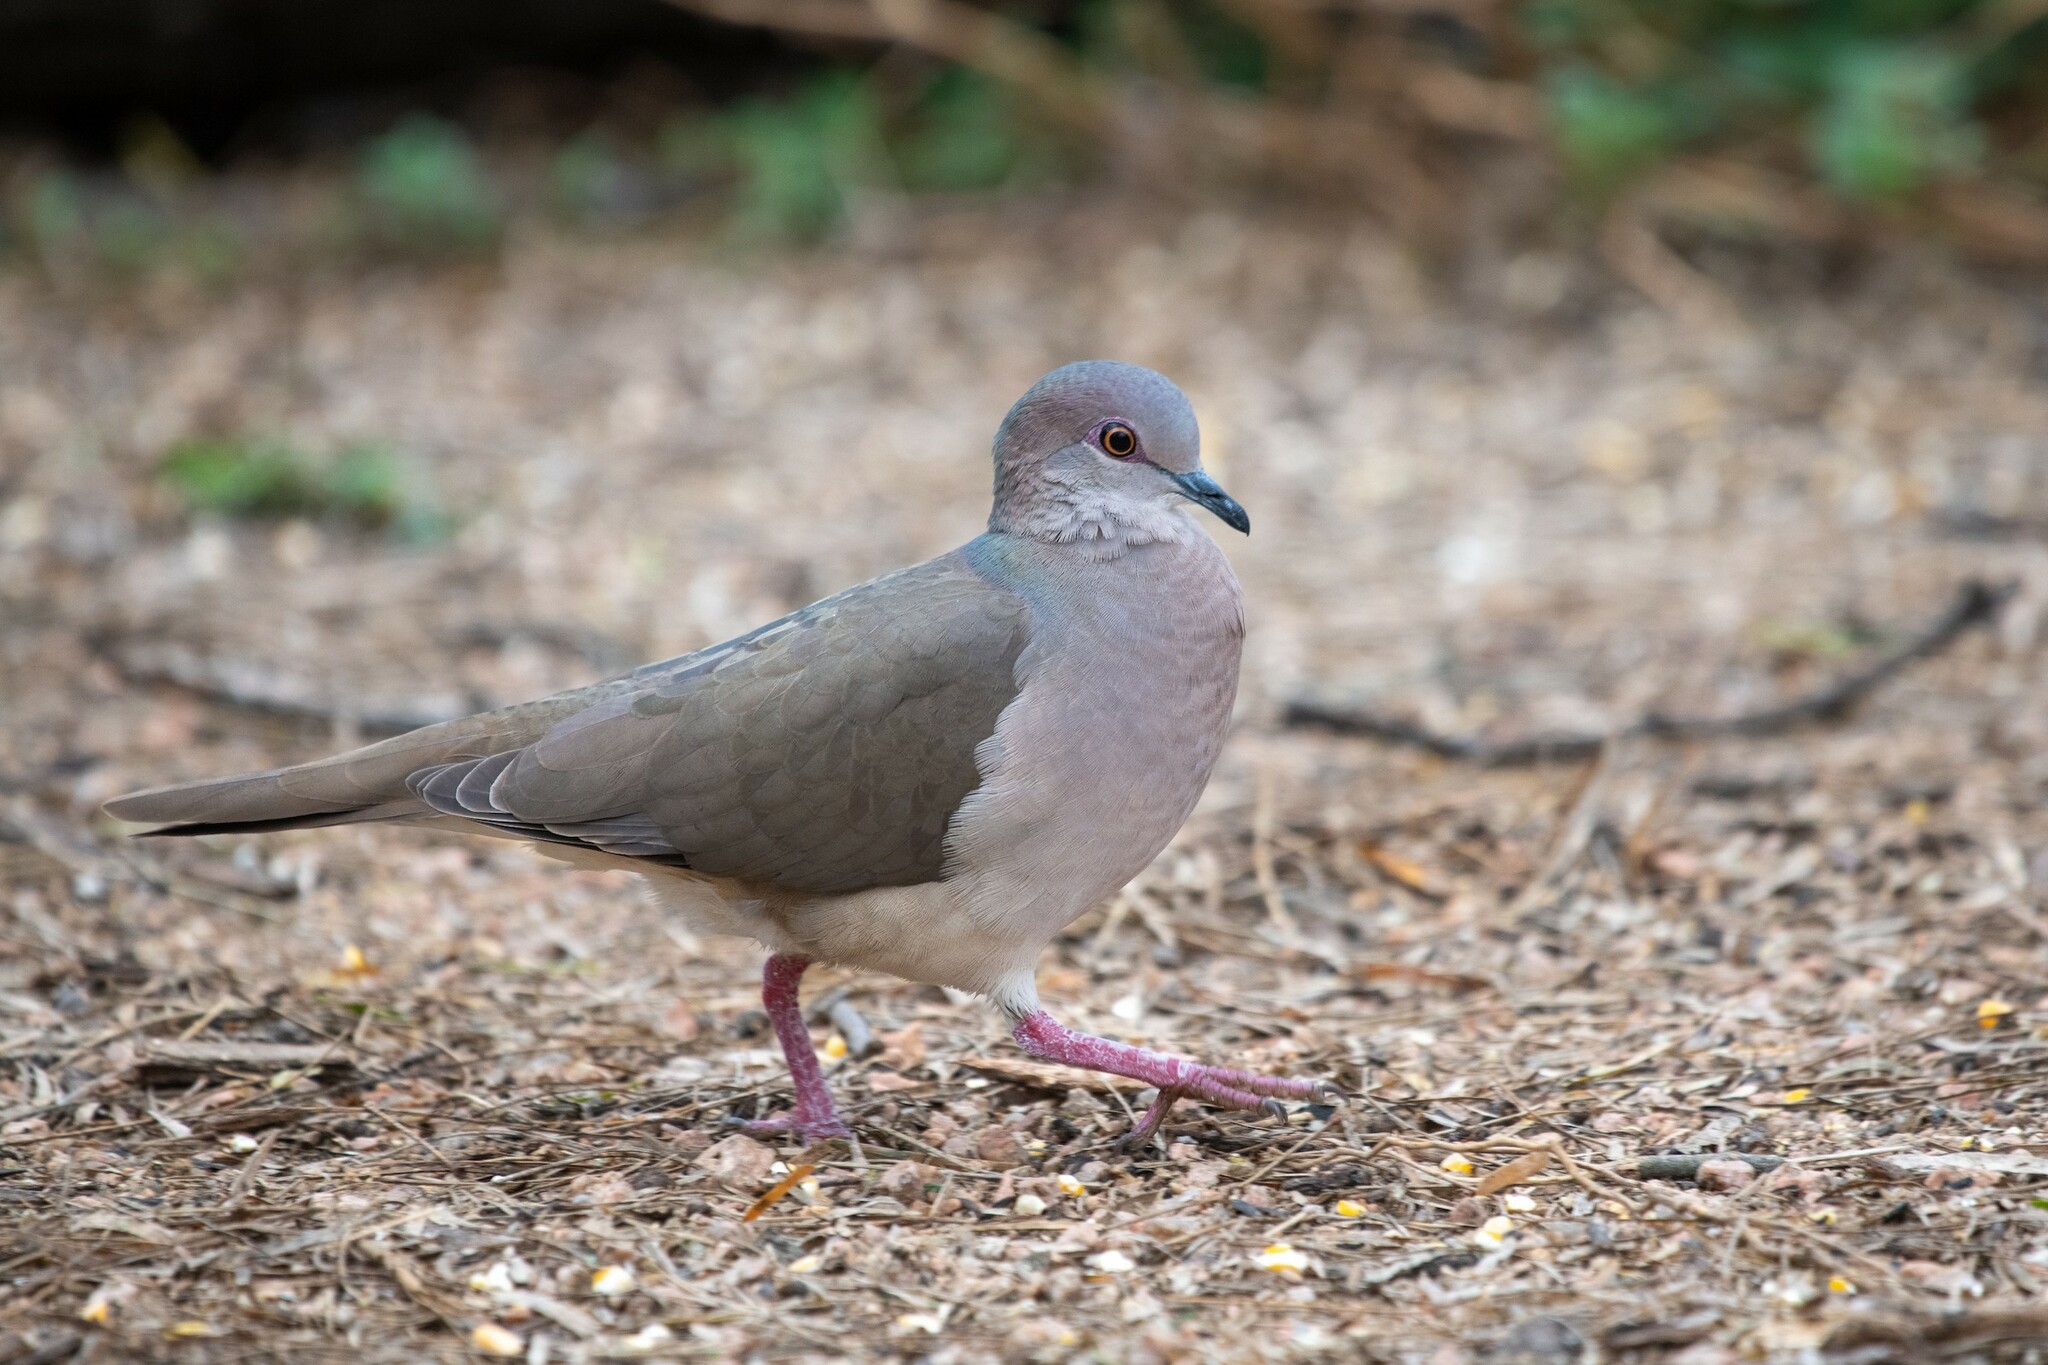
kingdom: Animalia
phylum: Chordata
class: Aves
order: Columbiformes
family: Columbidae
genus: Leptotila
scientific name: Leptotila verreauxi
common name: White-tipped dove
